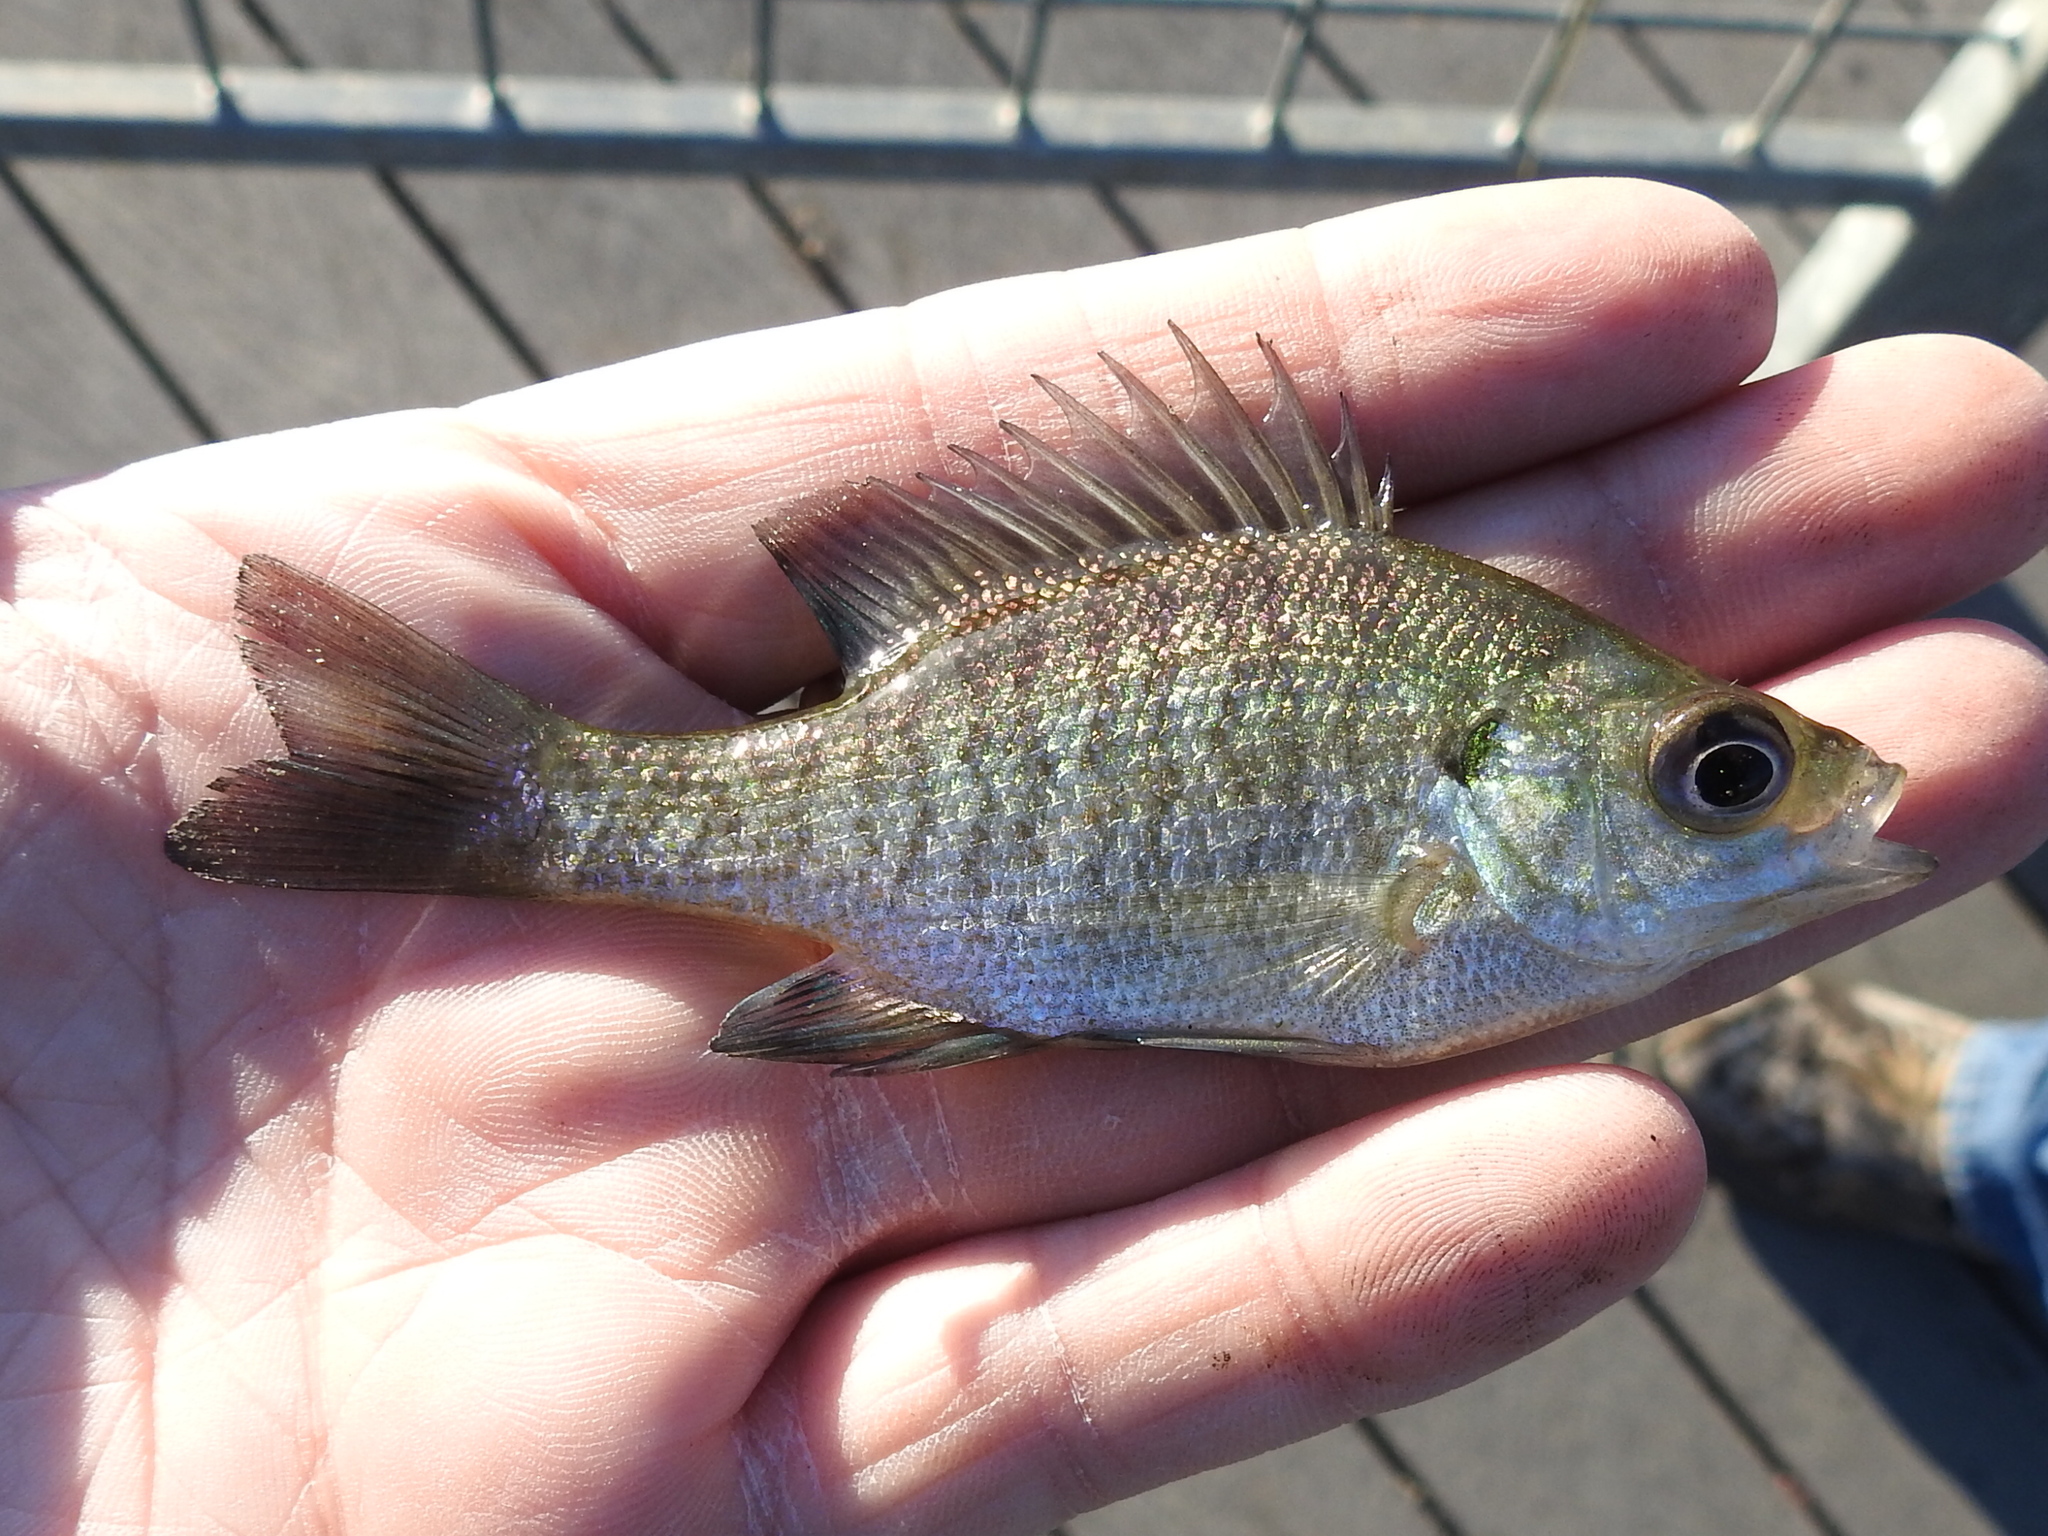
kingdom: Animalia
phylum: Chordata
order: Perciformes
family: Centrarchidae
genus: Lepomis
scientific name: Lepomis macrochirus
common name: Bluegill
